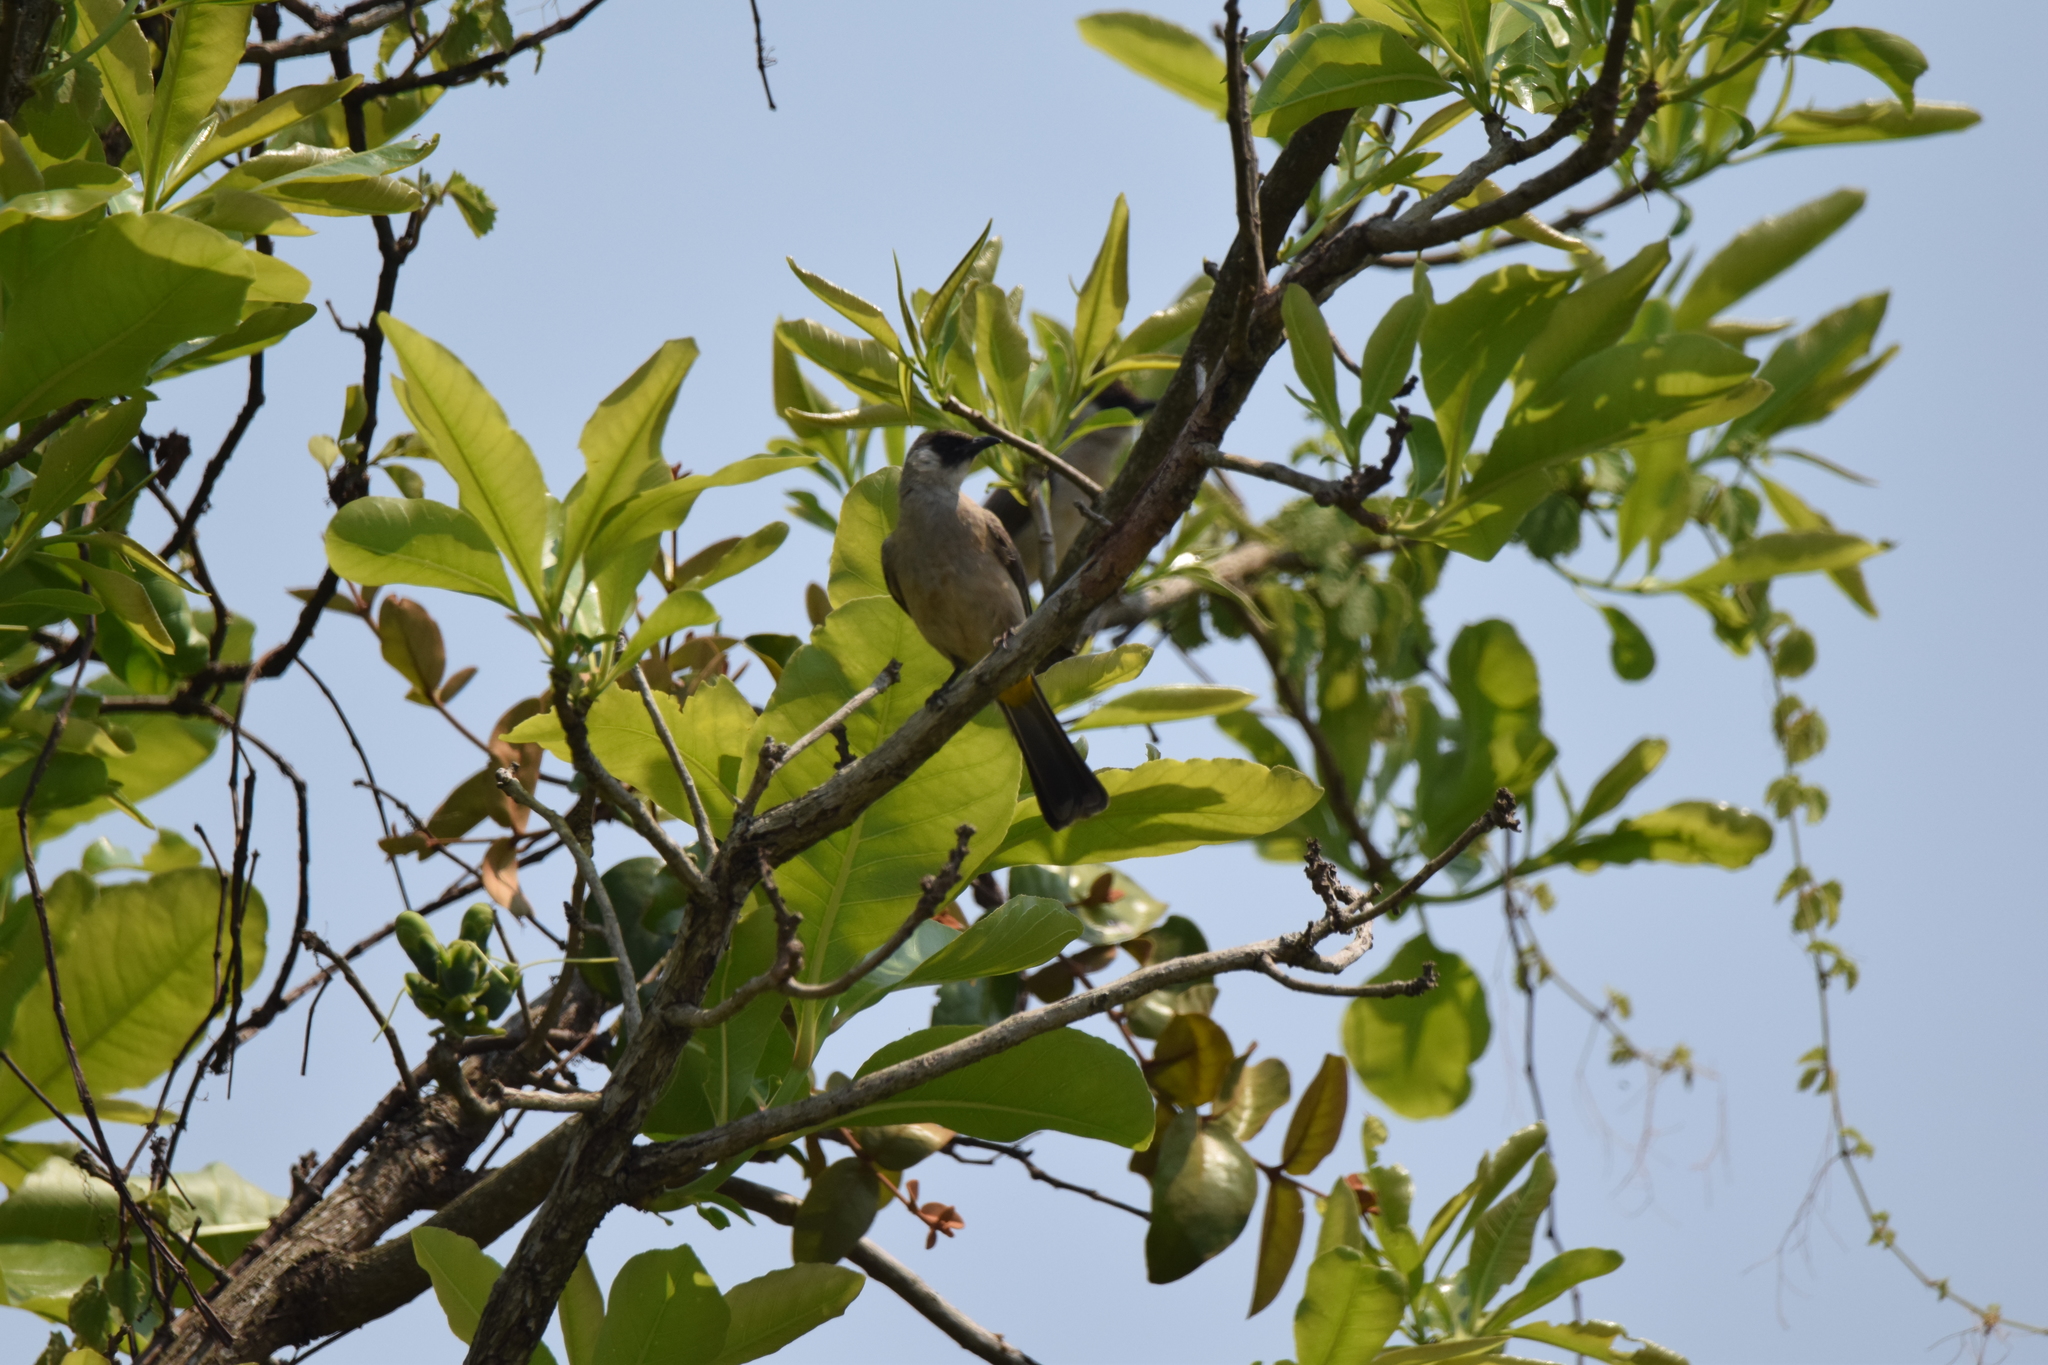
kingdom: Animalia
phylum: Chordata
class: Aves
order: Passeriformes
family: Pycnonotidae
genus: Pycnonotus
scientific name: Pycnonotus aurigaster
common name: Sooty-headed bulbul
